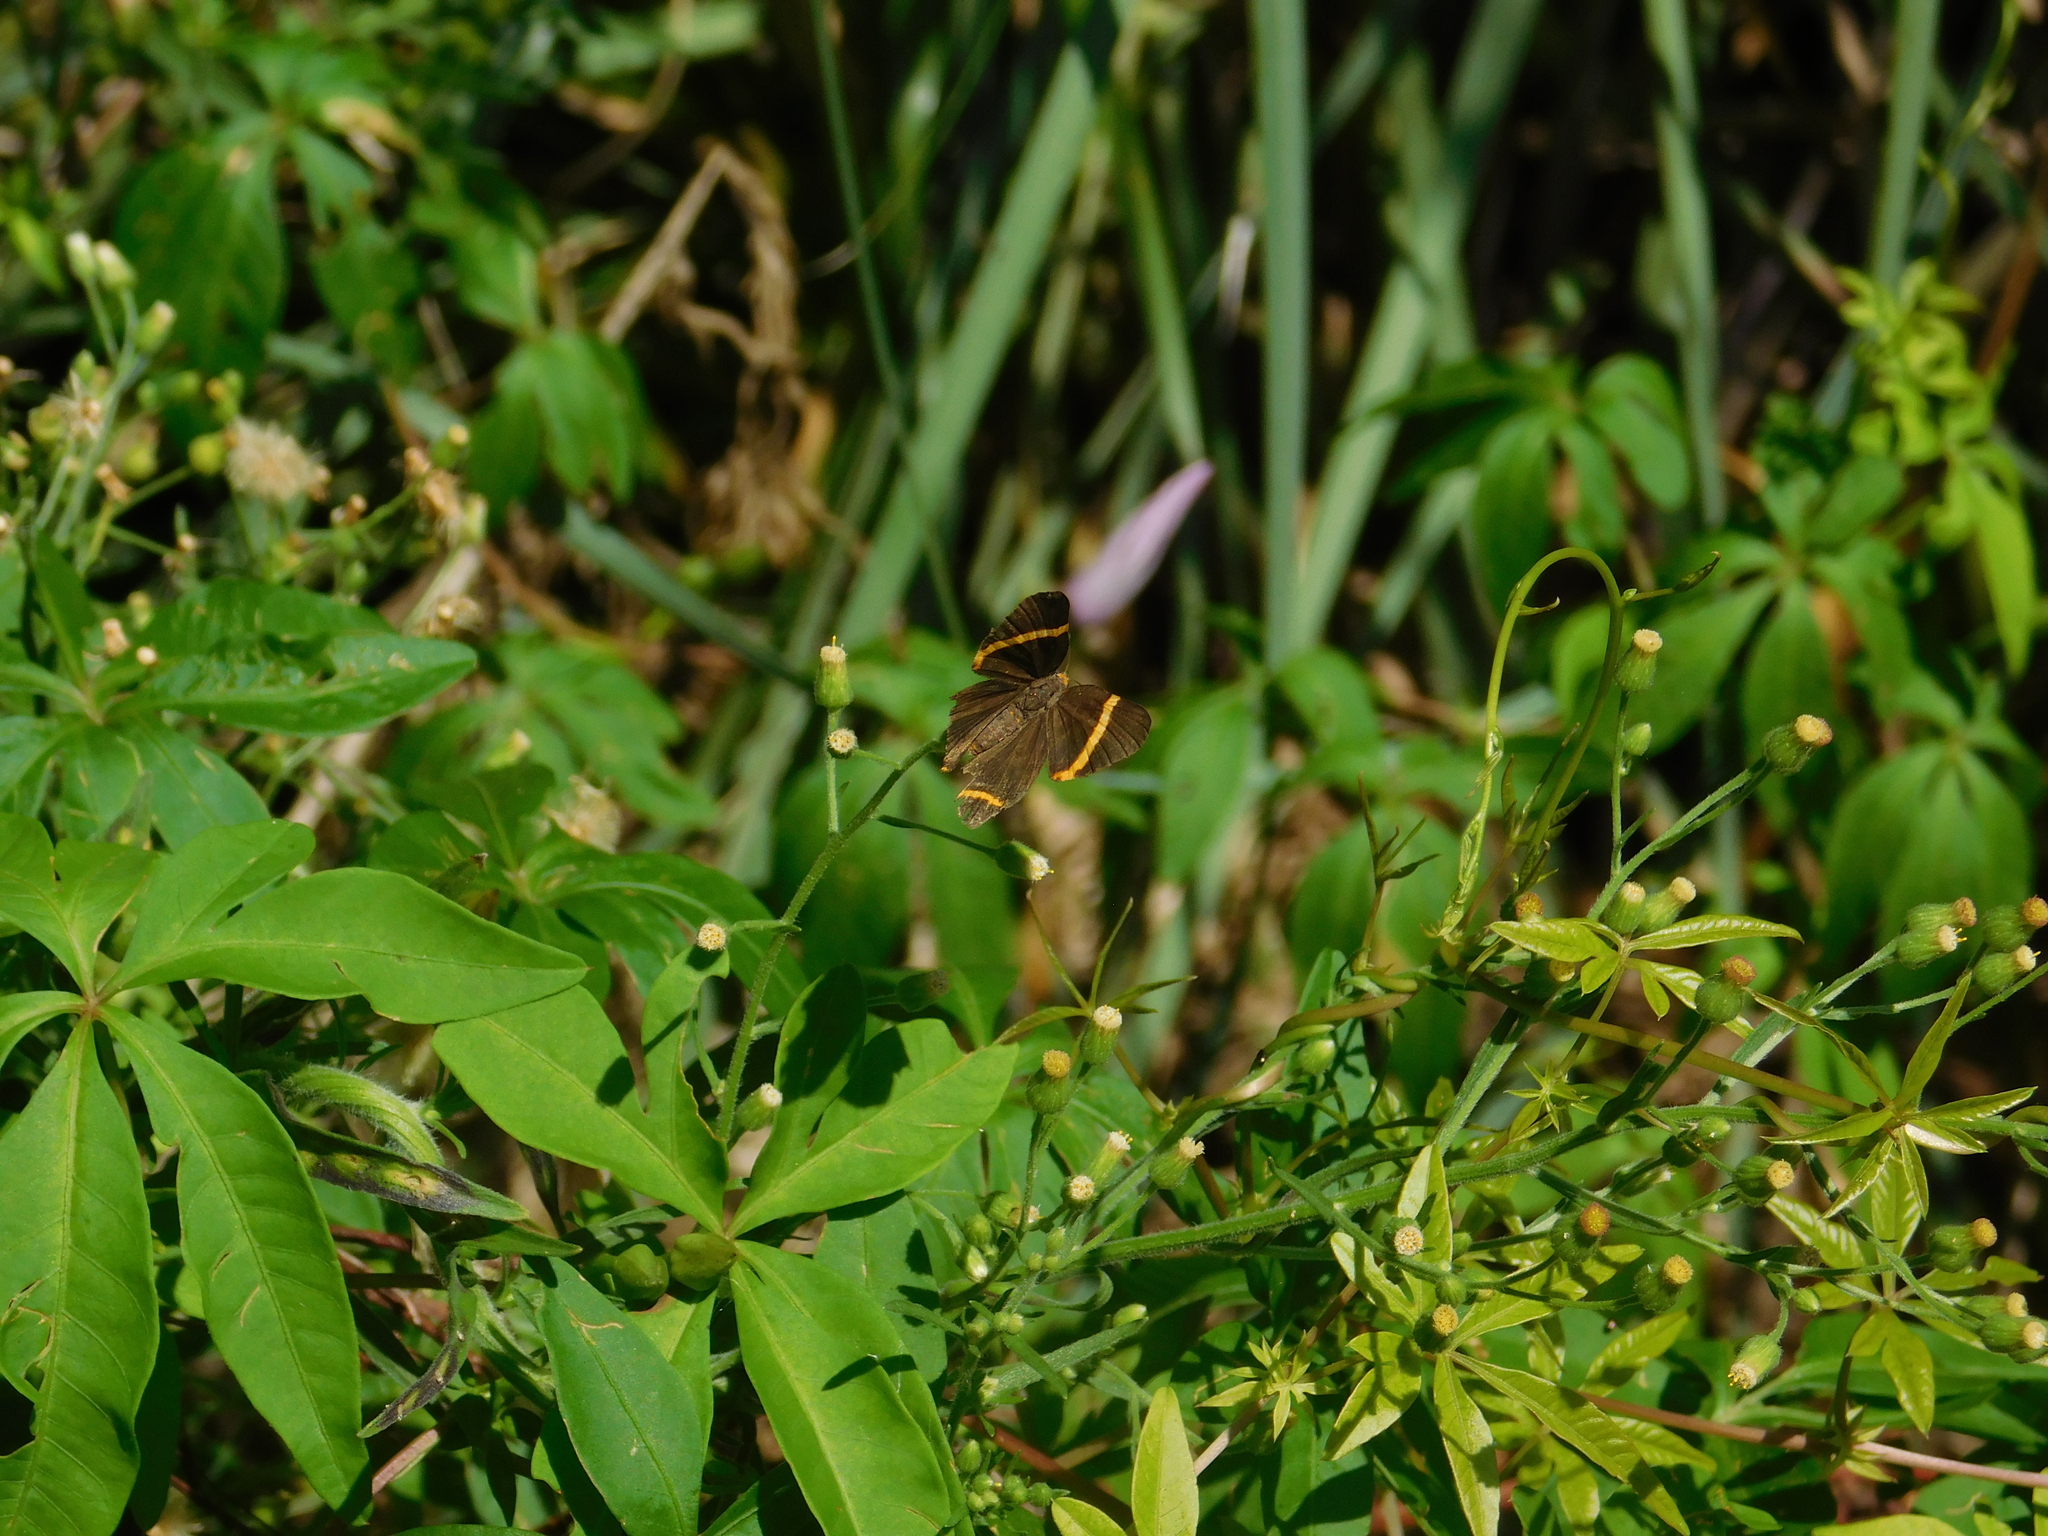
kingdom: Animalia
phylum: Arthropoda
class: Insecta
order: Lepidoptera
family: Riodinidae
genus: Riodina
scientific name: Riodina lysippoides
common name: Little dancer metalmark
